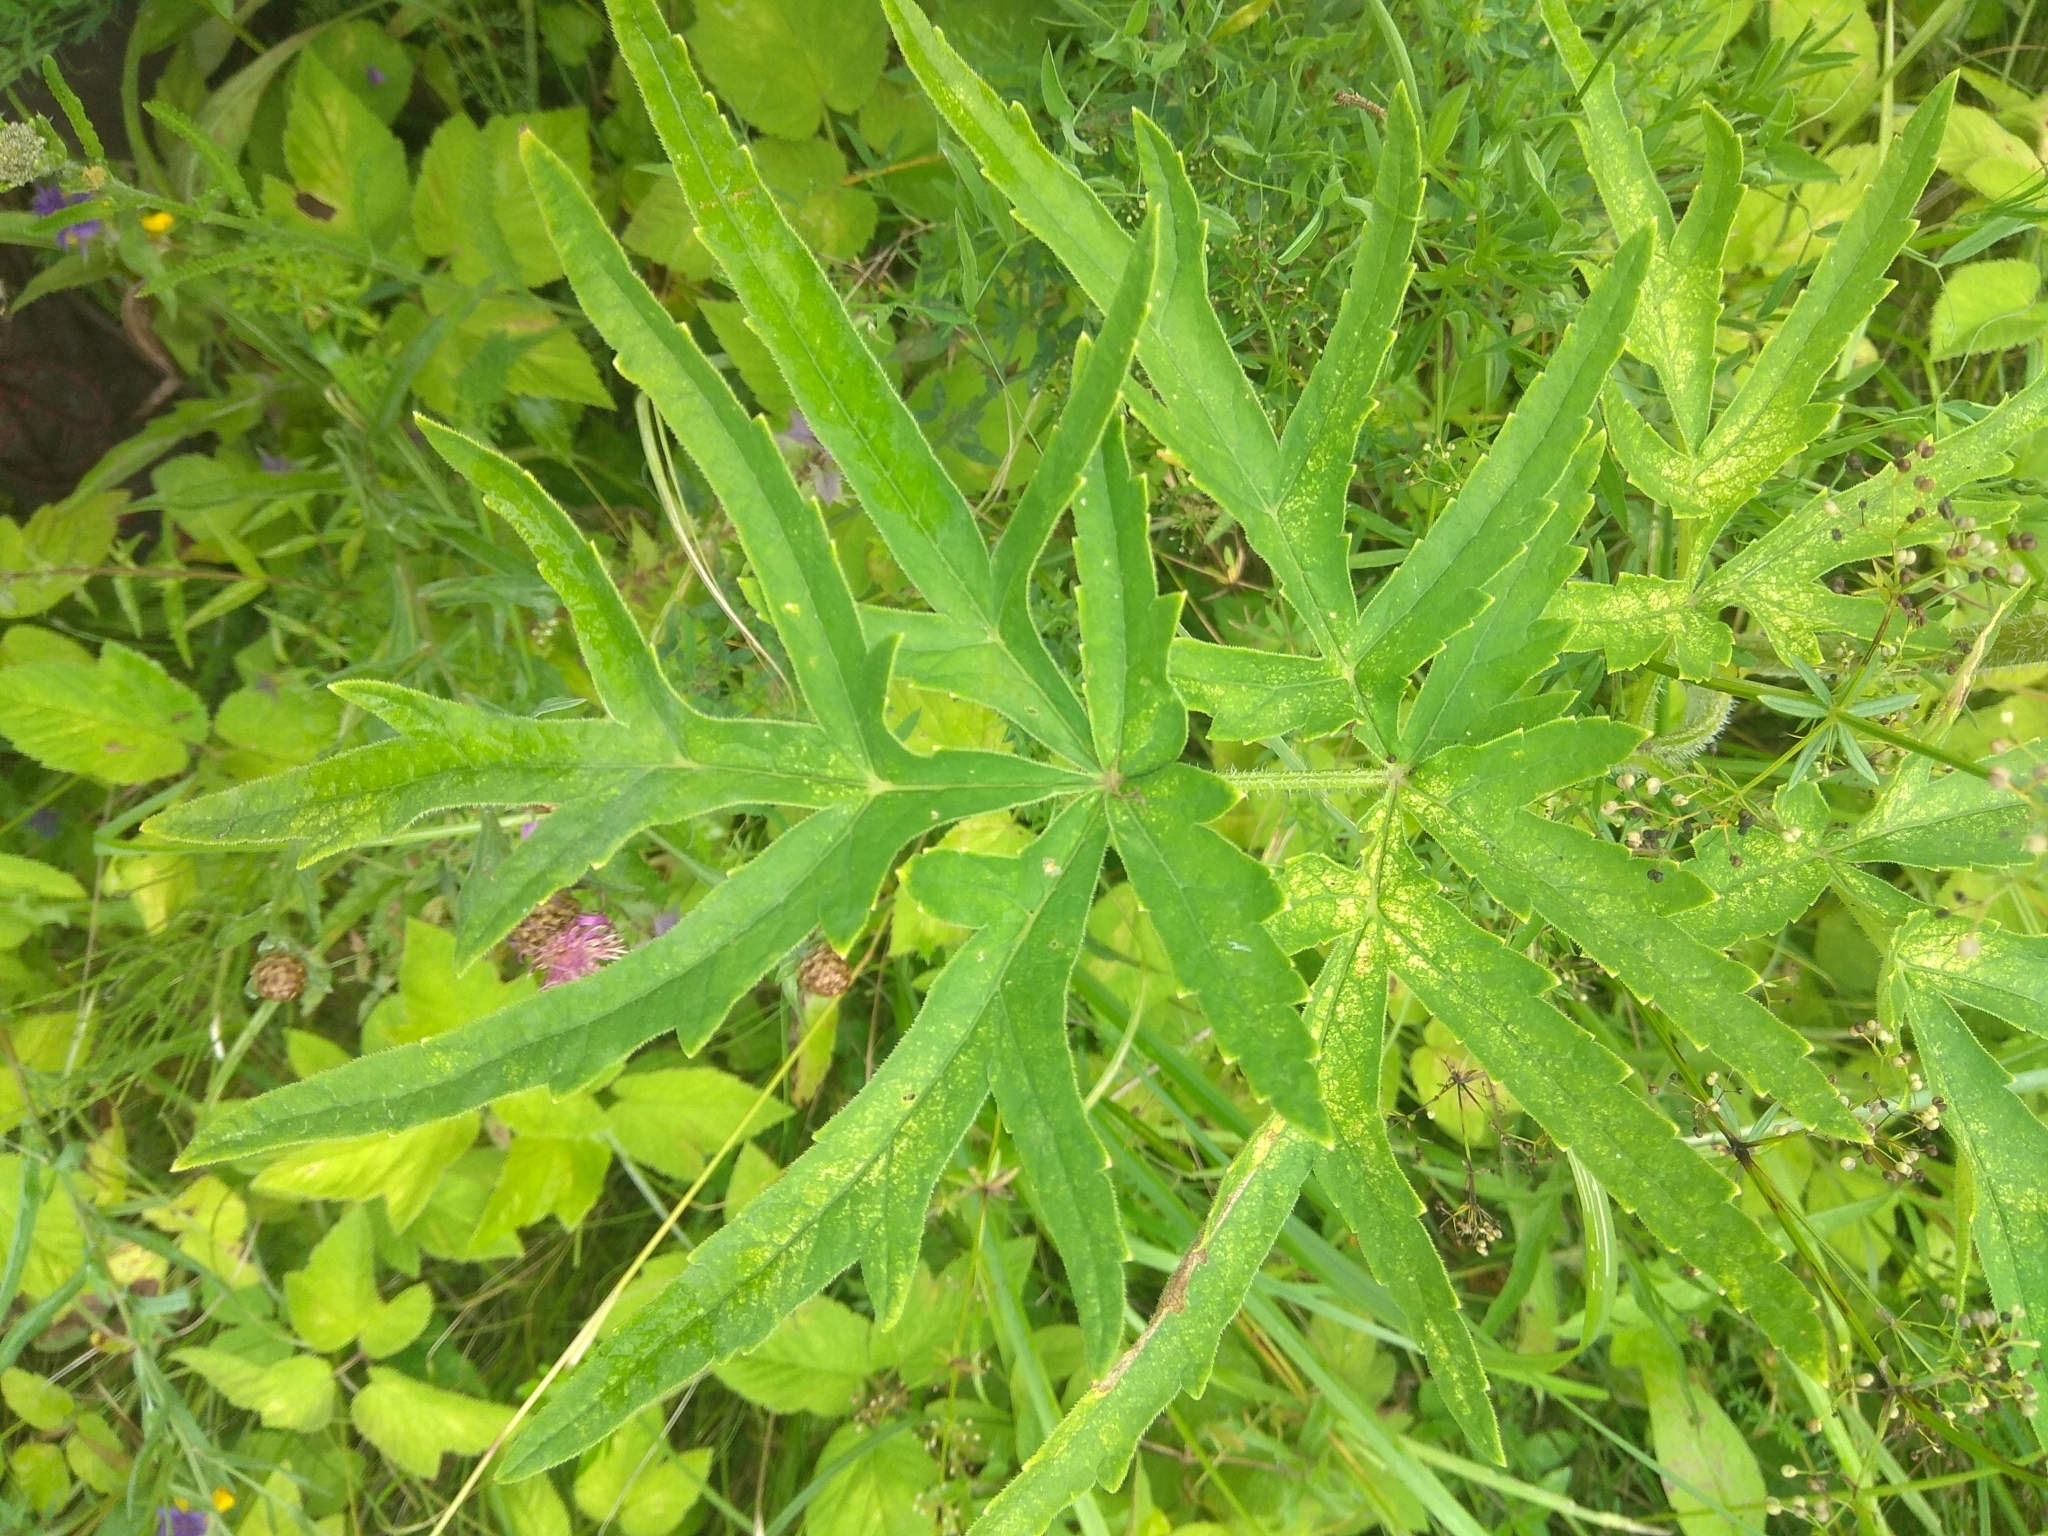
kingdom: Plantae
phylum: Tracheophyta
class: Magnoliopsida
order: Apiales
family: Apiaceae
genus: Heracleum
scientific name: Heracleum sphondylium
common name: Hogweed
